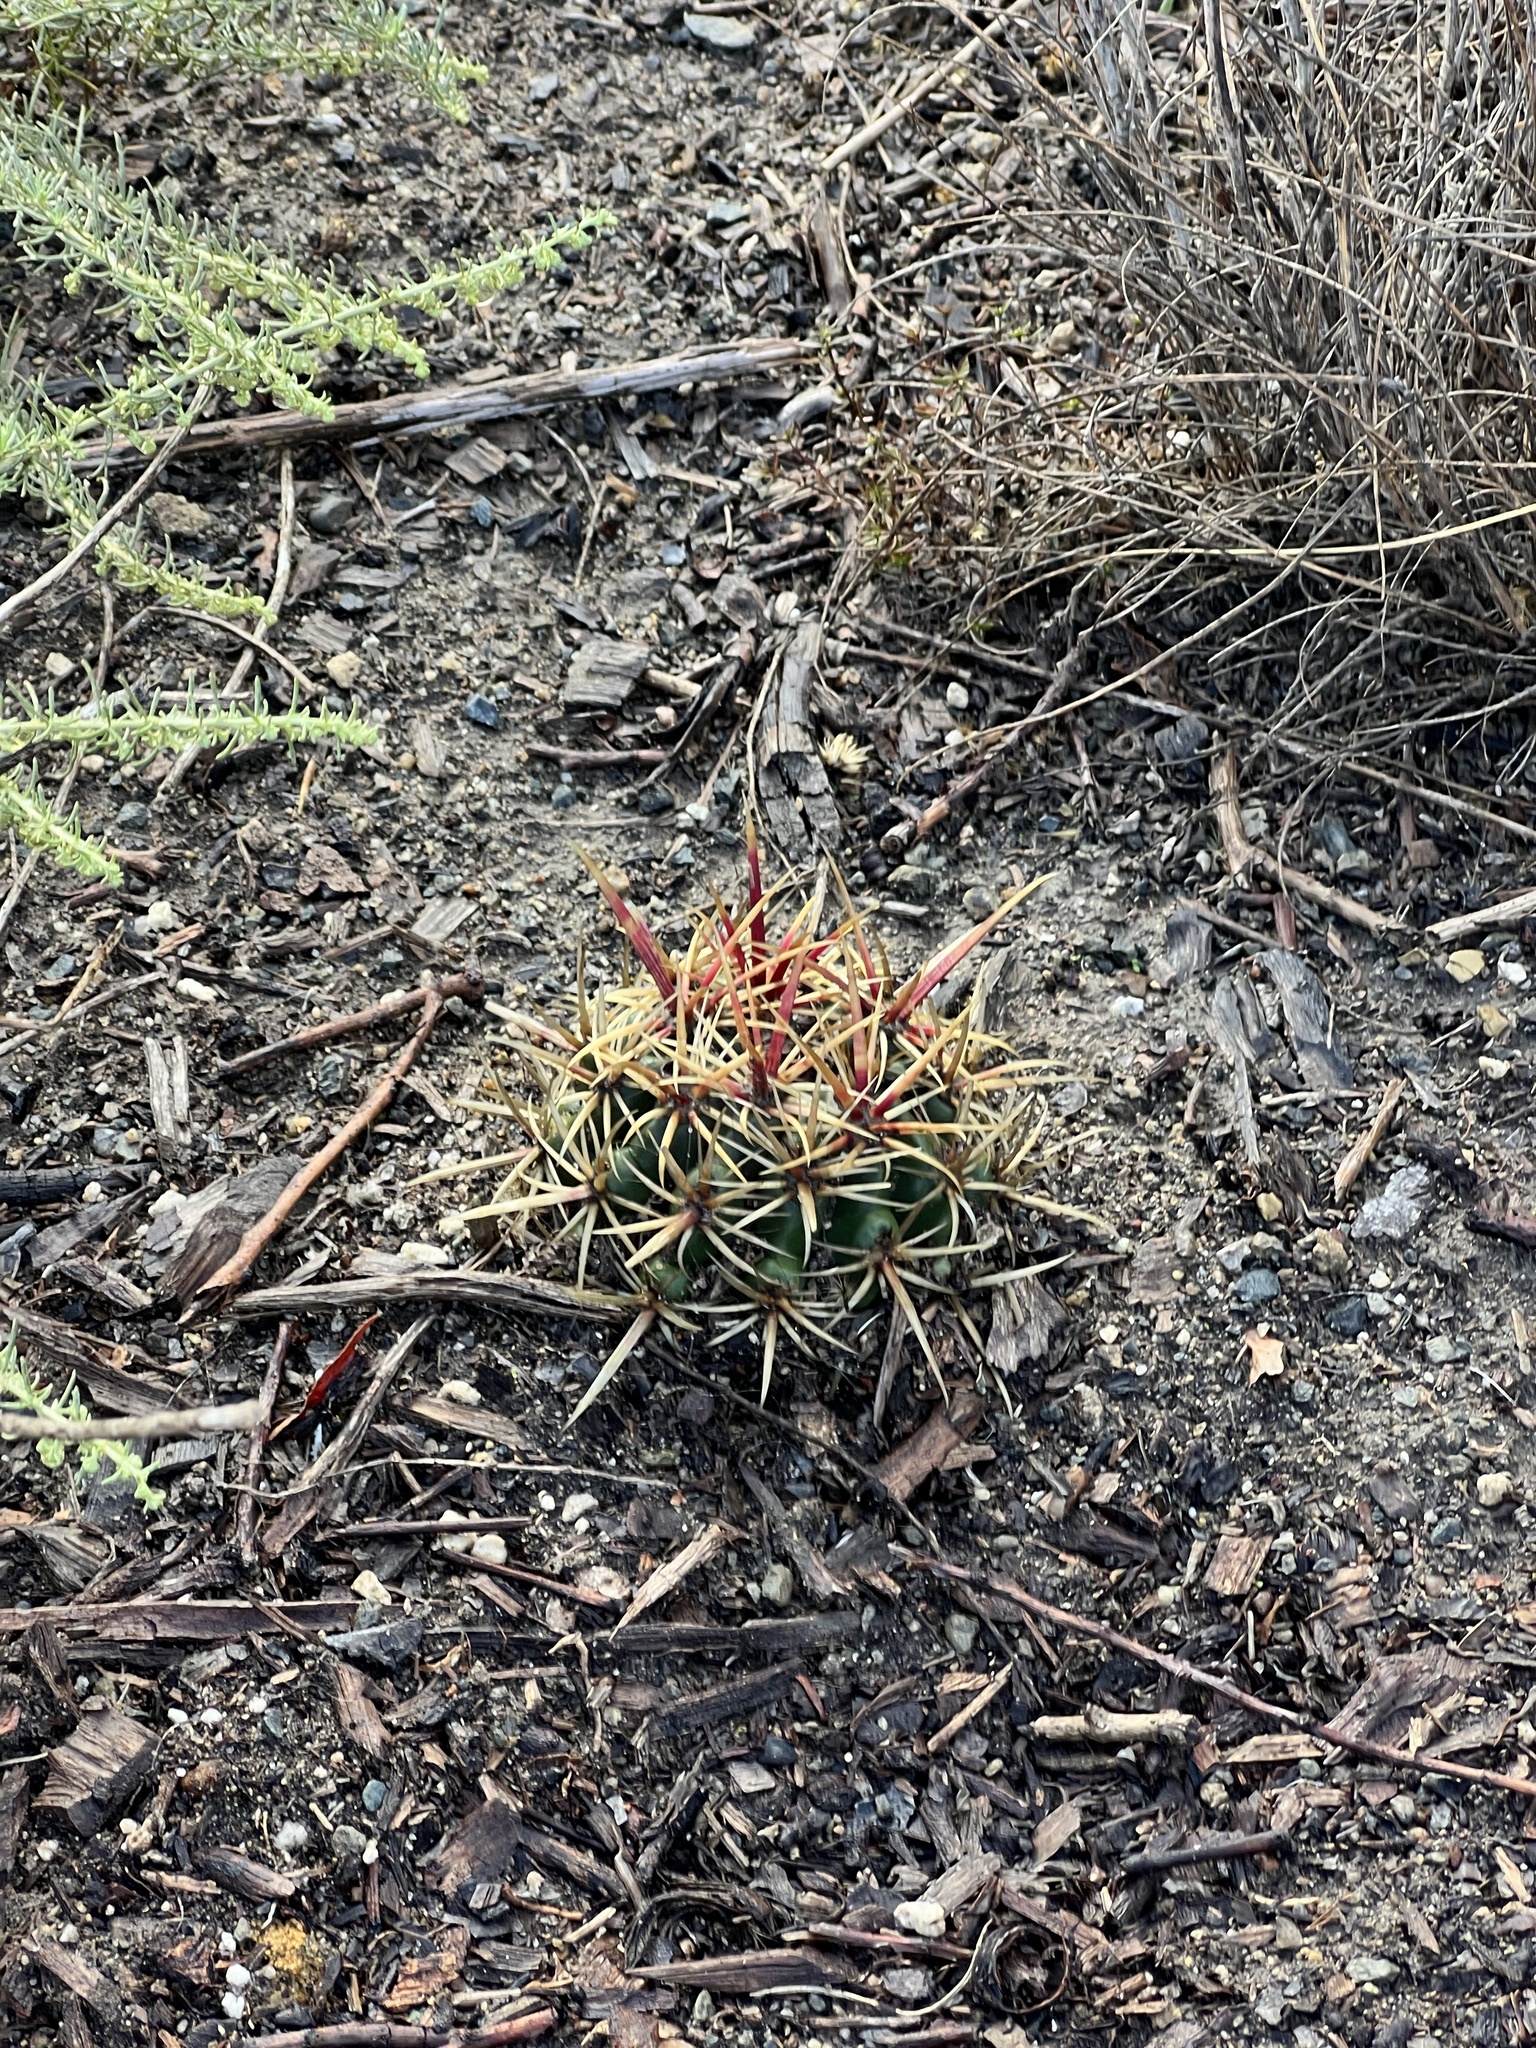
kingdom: Plantae
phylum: Tracheophyta
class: Magnoliopsida
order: Caryophyllales
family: Cactaceae
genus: Ferocactus
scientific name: Ferocactus viridescens
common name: San diego barrel cactus
